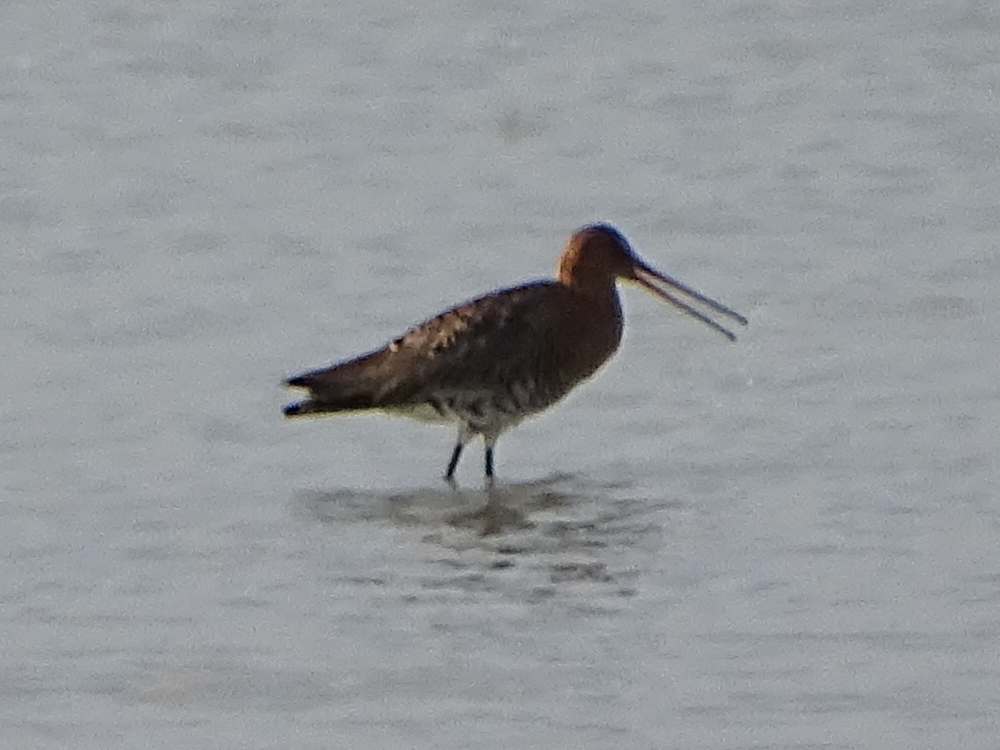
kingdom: Animalia
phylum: Chordata
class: Aves
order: Charadriiformes
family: Scolopacidae
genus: Limosa
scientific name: Limosa limosa
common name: Black-tailed godwit
